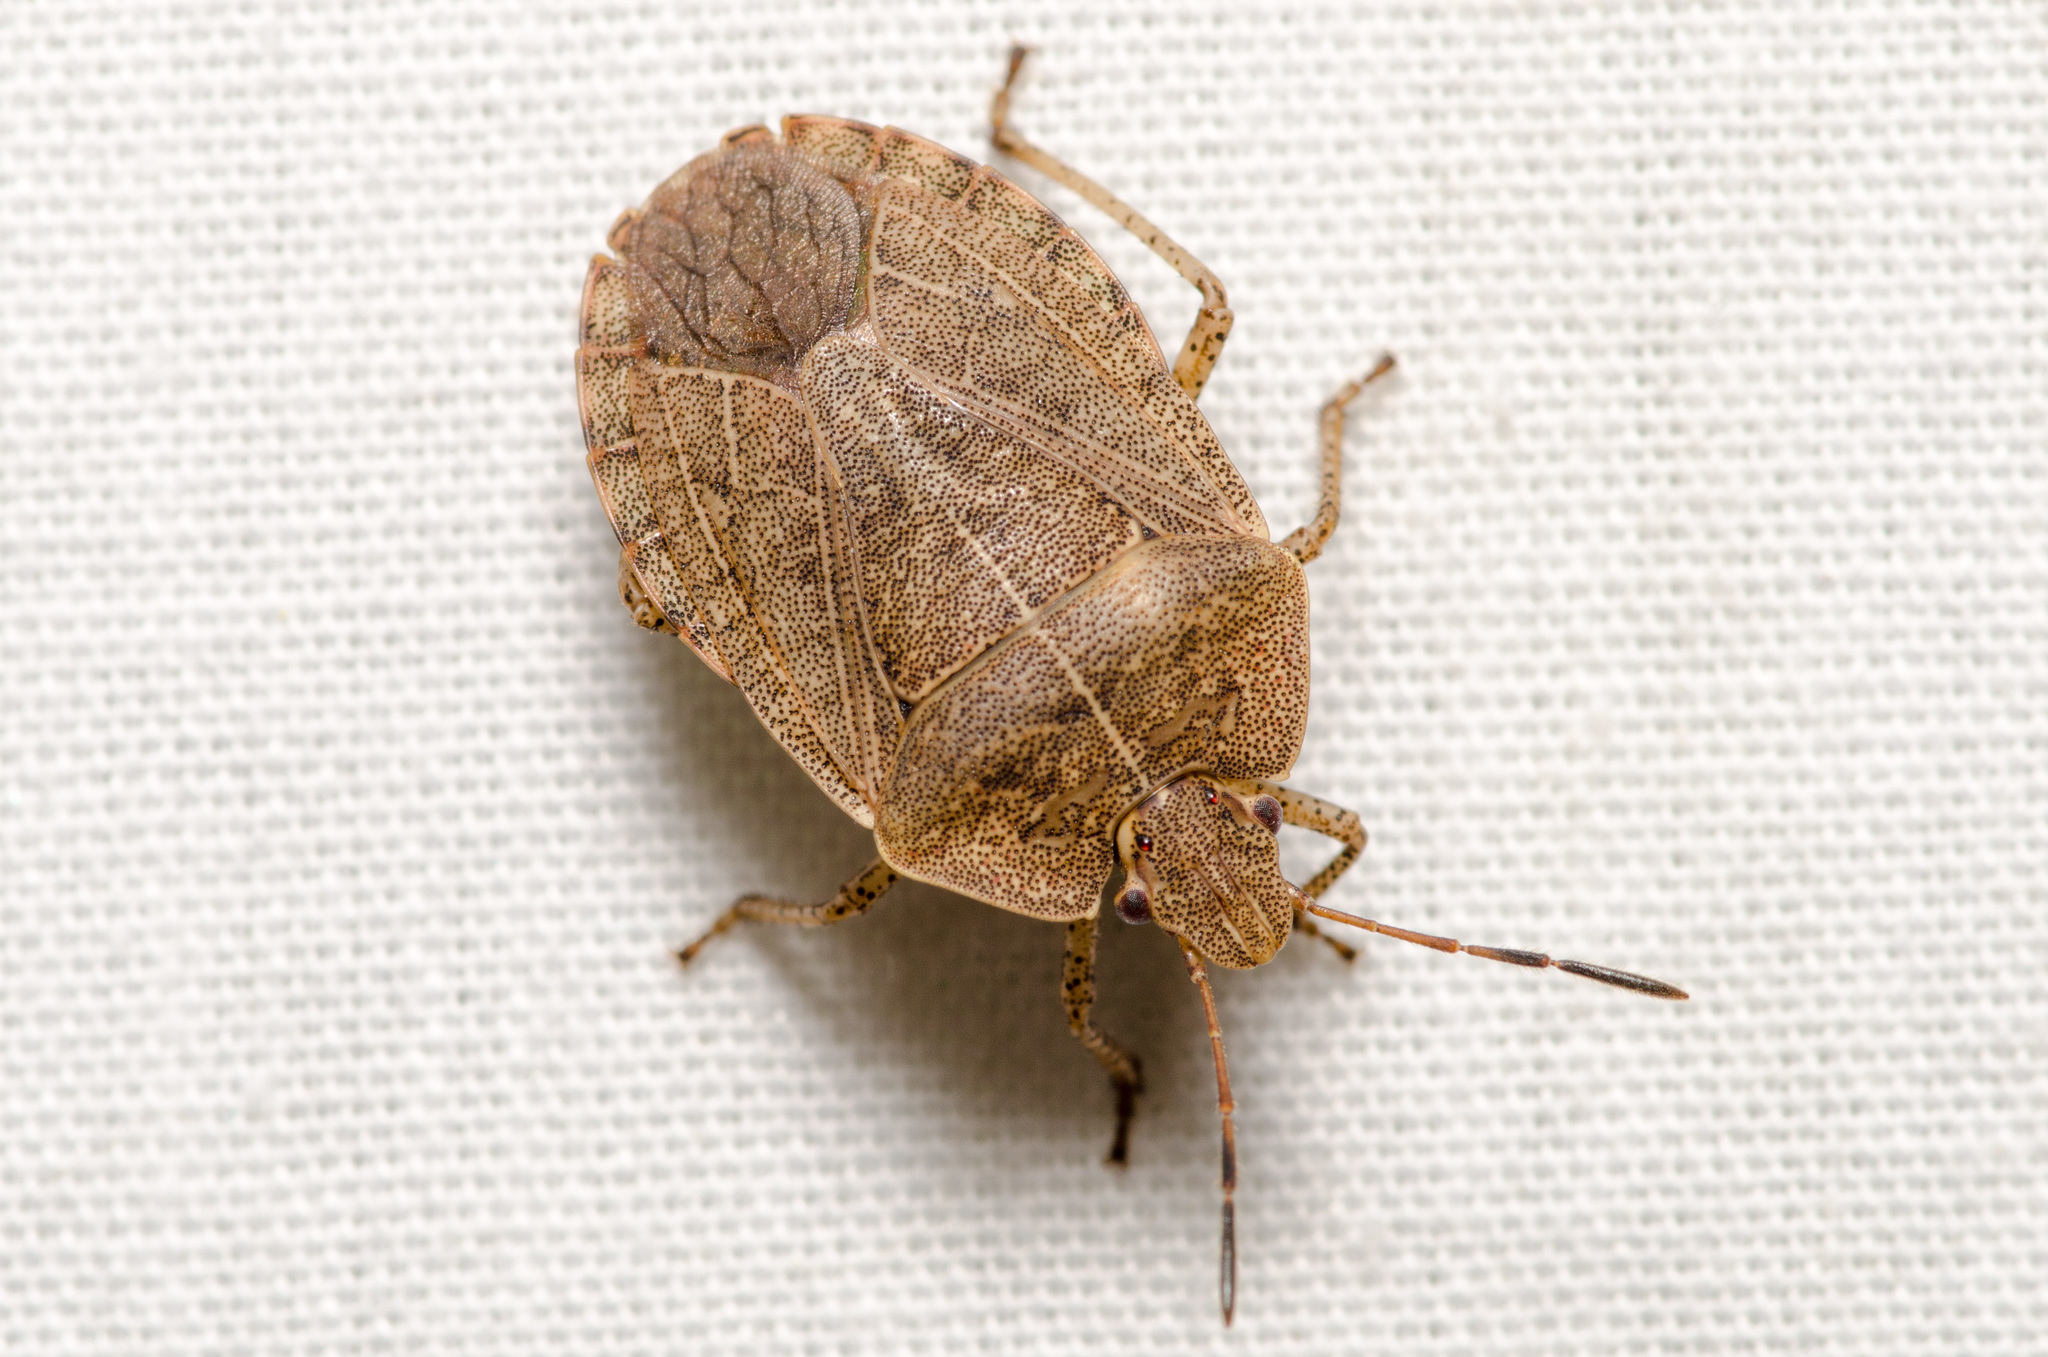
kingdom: Animalia
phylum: Arthropoda
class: Insecta
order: Hemiptera
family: Pentatomidae
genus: Menecles
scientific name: Menecles insertus
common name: Elf shoe stink bug
